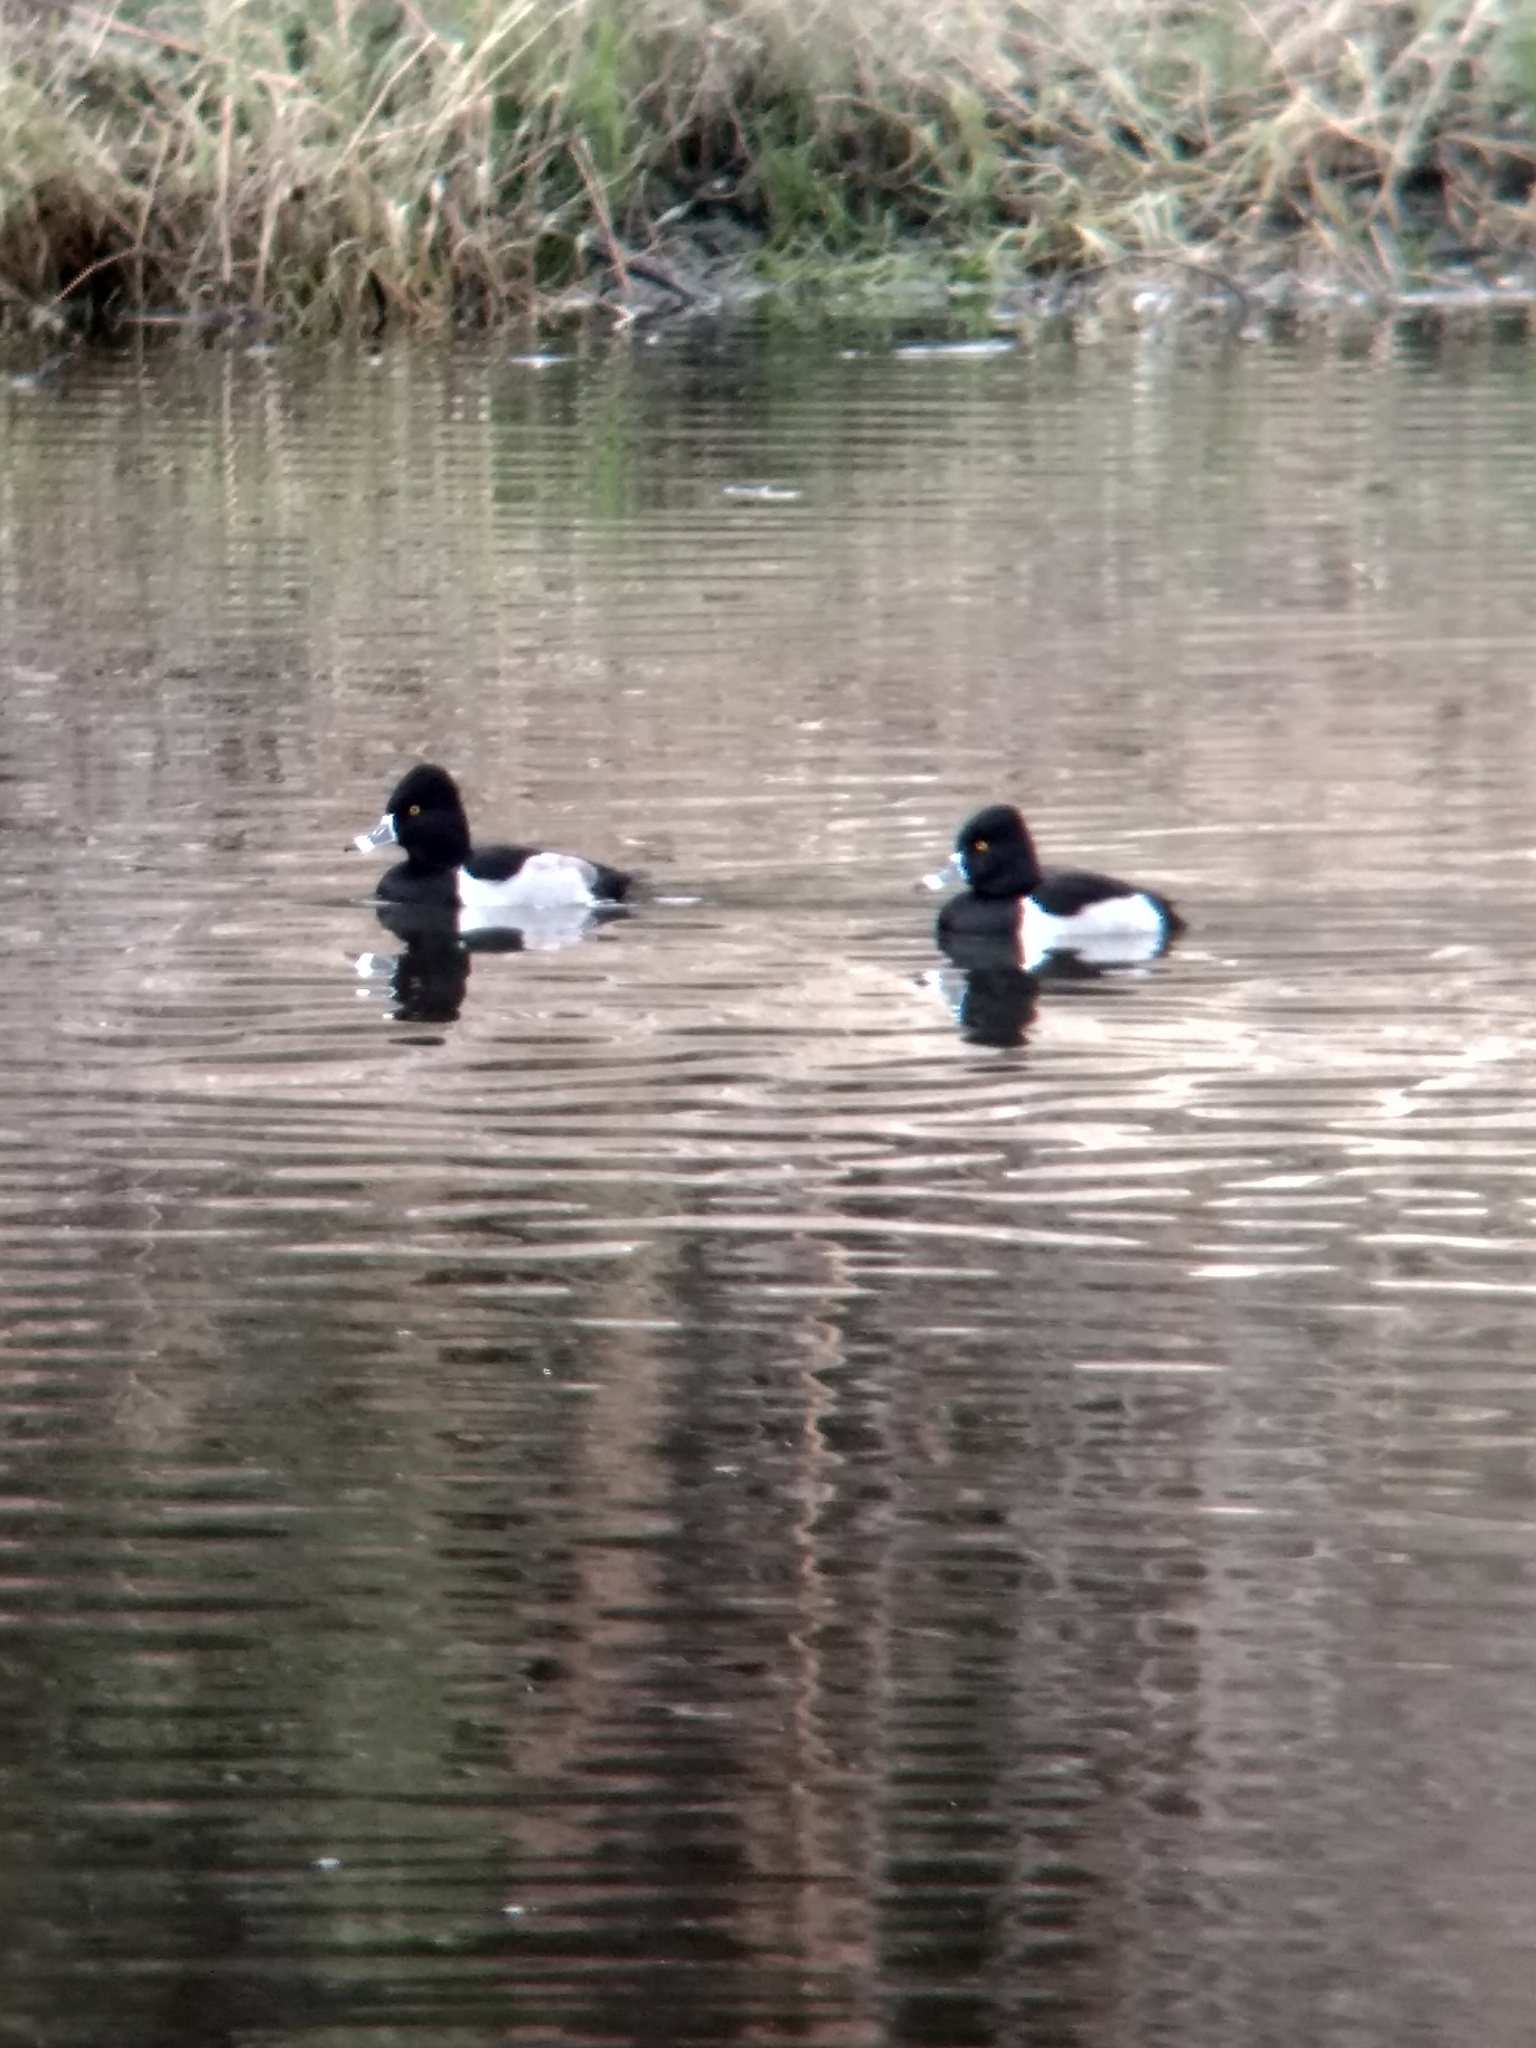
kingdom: Animalia
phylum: Chordata
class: Aves
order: Anseriformes
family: Anatidae
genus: Aythya
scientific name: Aythya collaris
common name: Ring-necked duck
